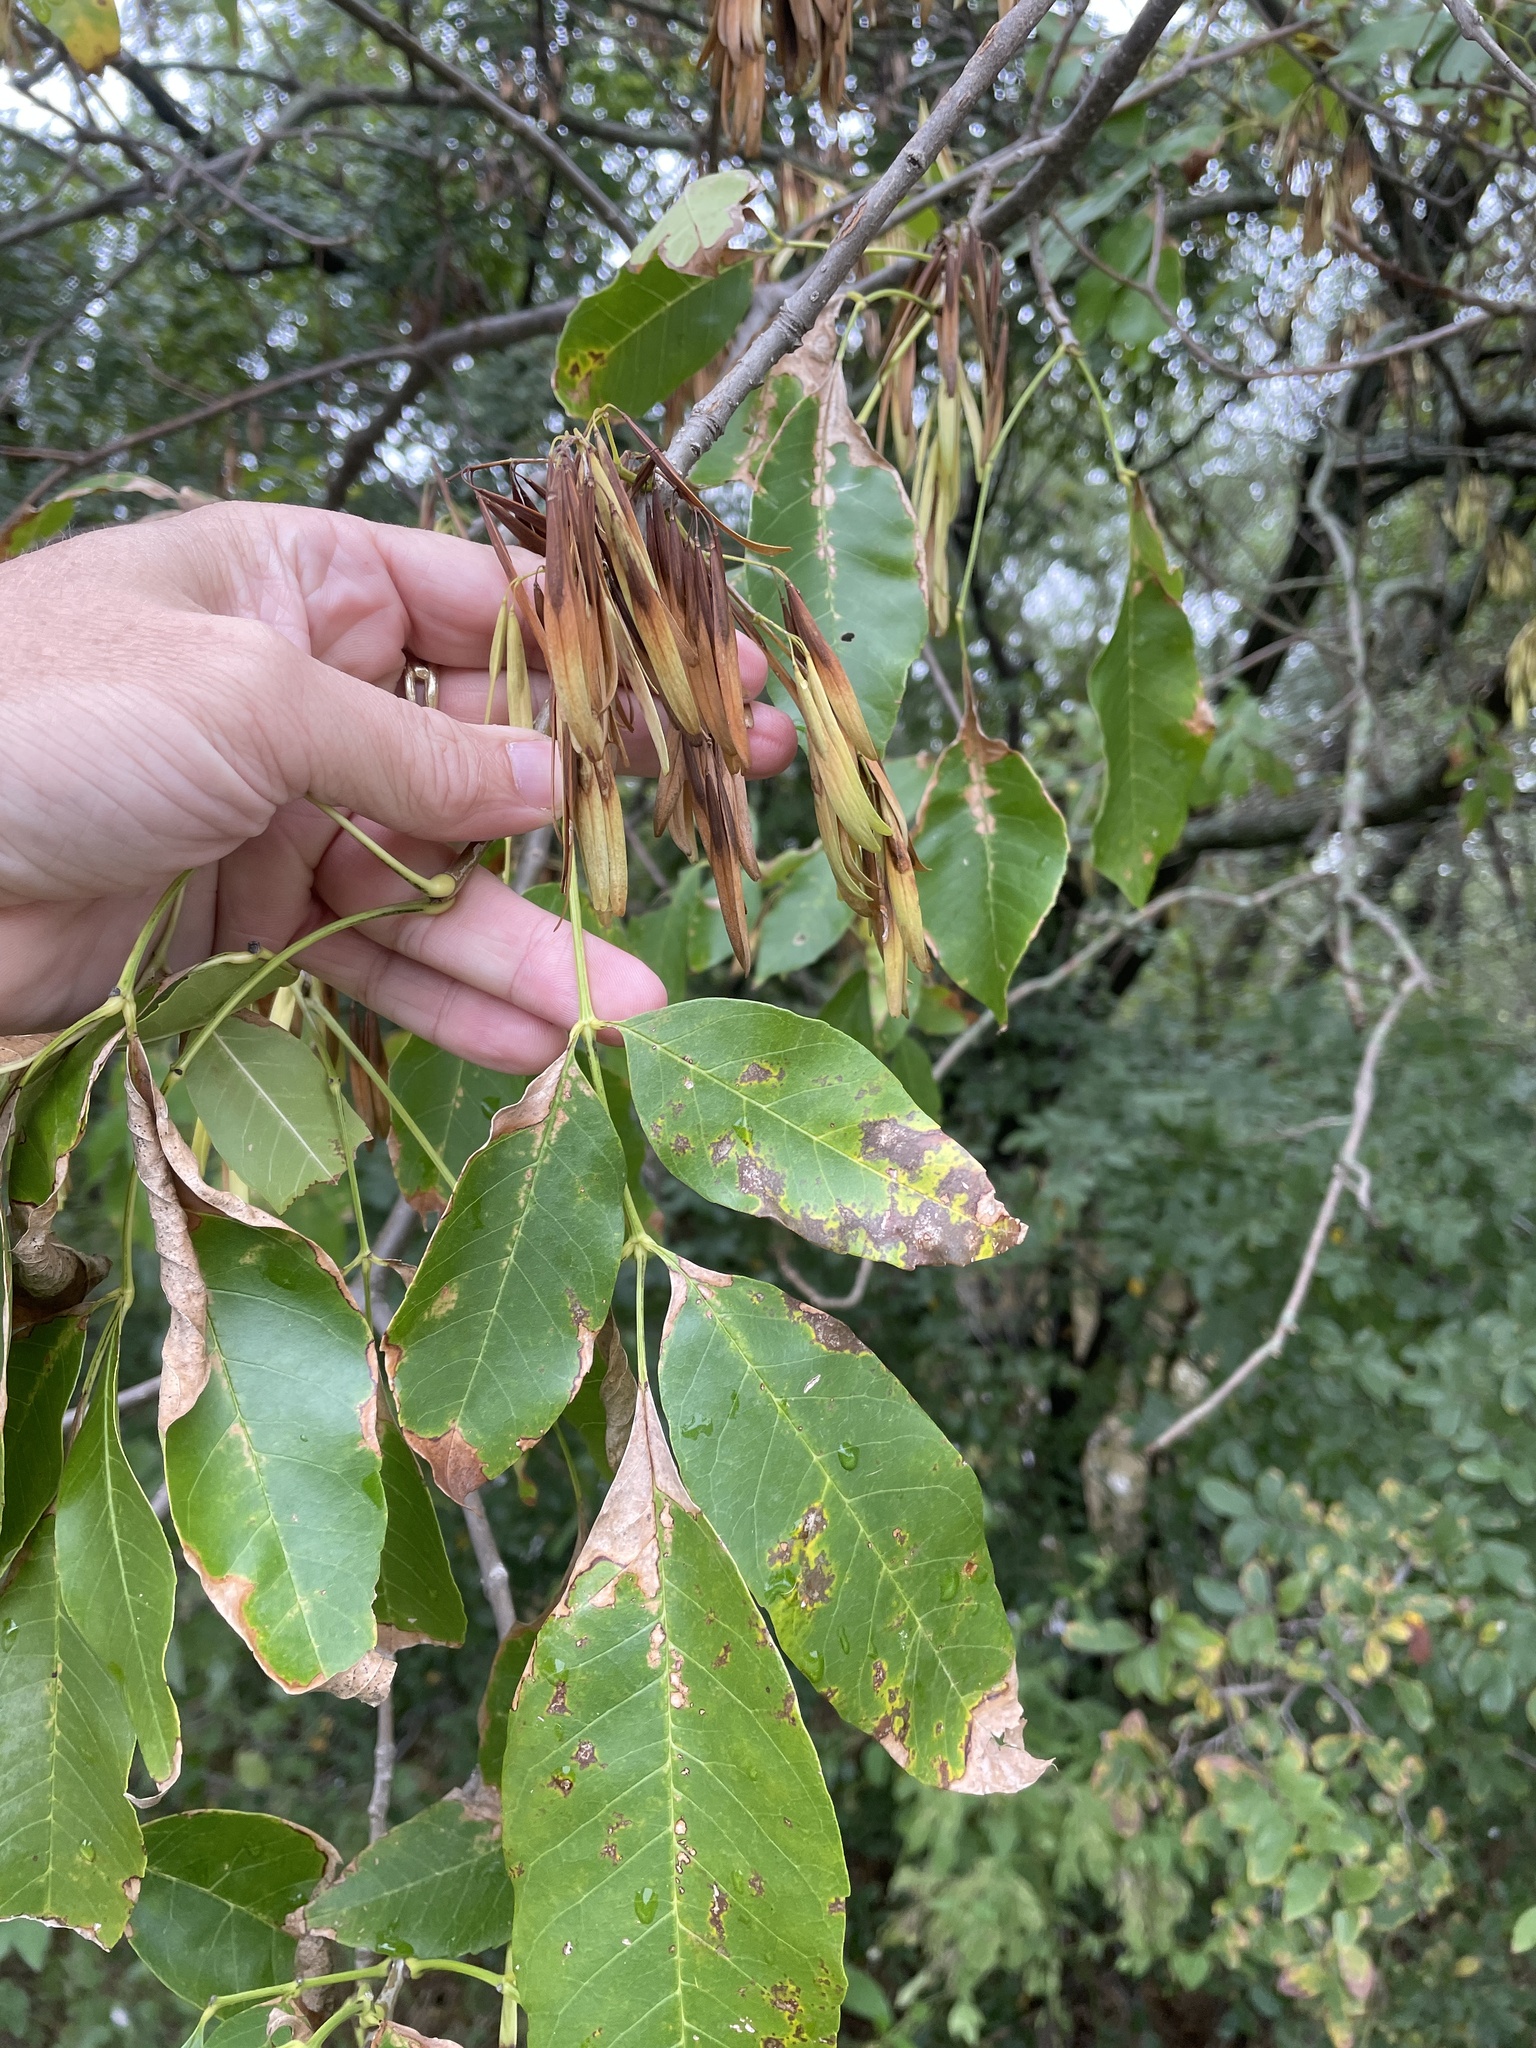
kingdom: Plantae
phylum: Tracheophyta
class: Magnoliopsida
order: Lamiales
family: Oleaceae
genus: Fraxinus
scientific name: Fraxinus pennsylvanica
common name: Green ash
